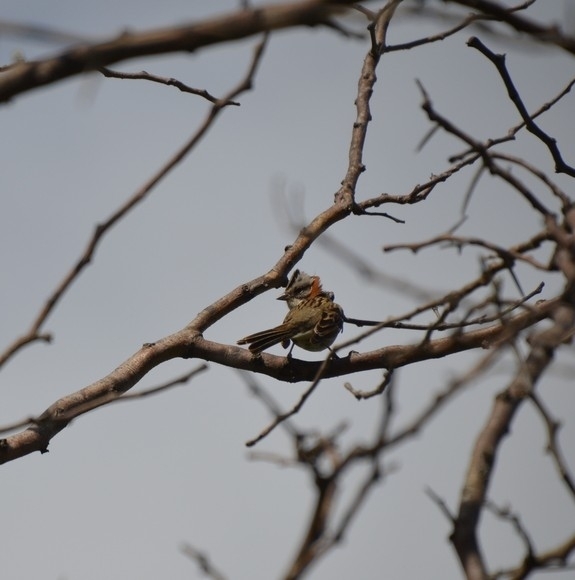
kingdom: Animalia
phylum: Chordata
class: Aves
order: Passeriformes
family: Passerellidae
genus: Zonotrichia
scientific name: Zonotrichia capensis
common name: Rufous-collared sparrow
